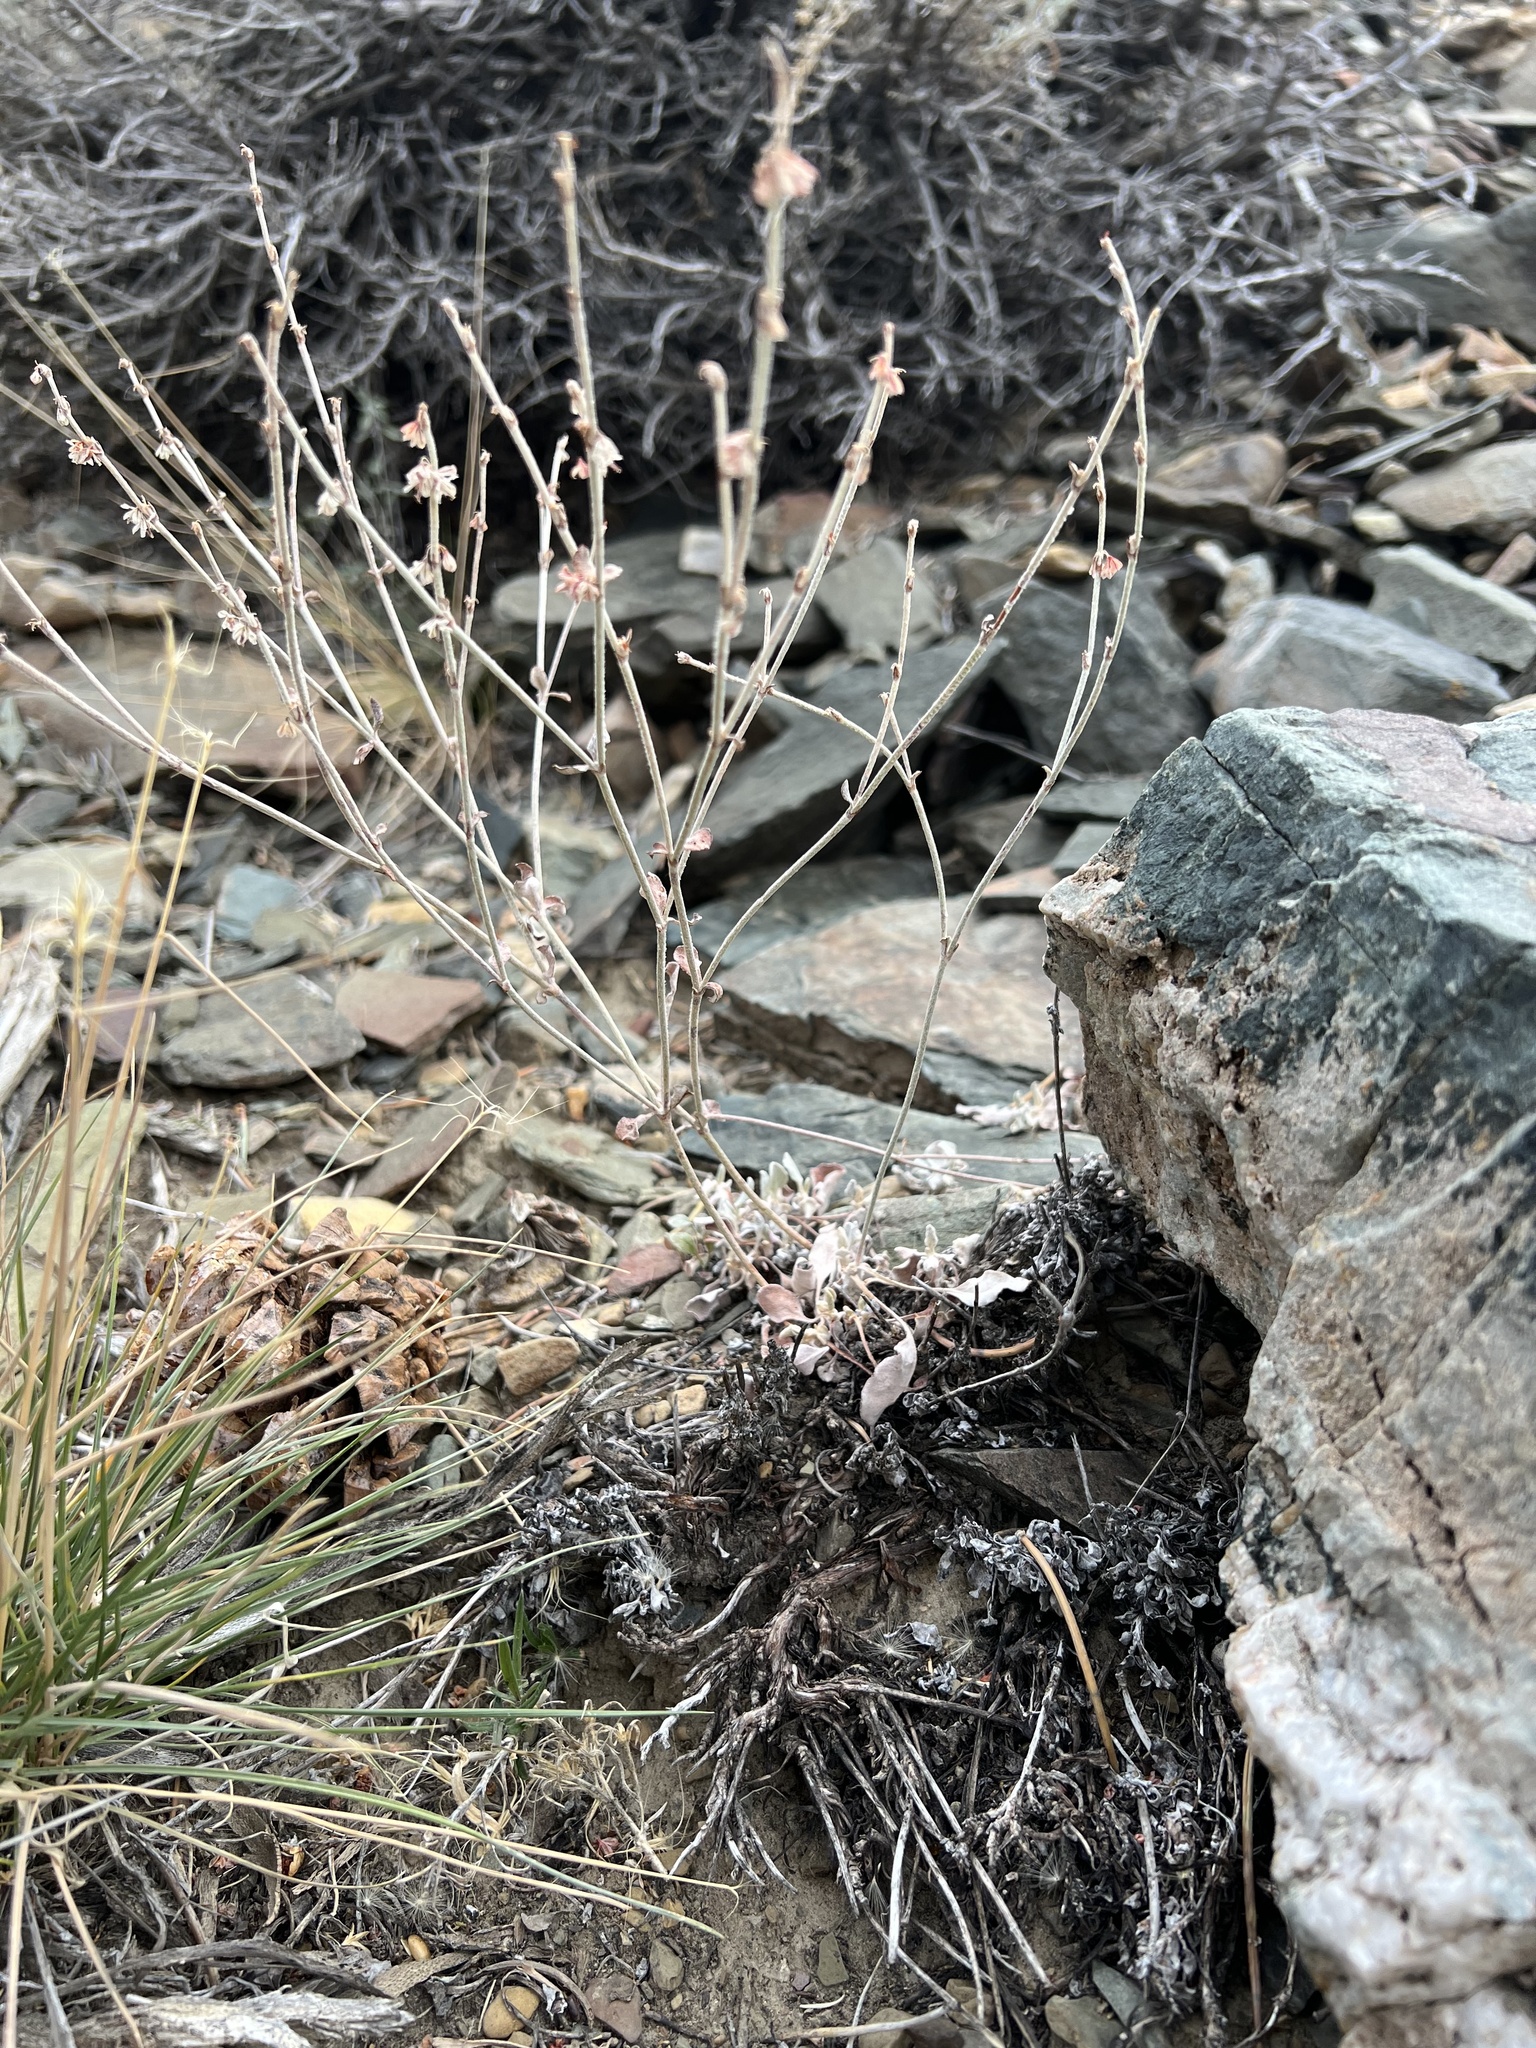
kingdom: Plantae
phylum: Tracheophyta
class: Magnoliopsida
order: Caryophyllales
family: Polygonaceae
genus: Eriogonum
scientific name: Eriogonum panamintense
